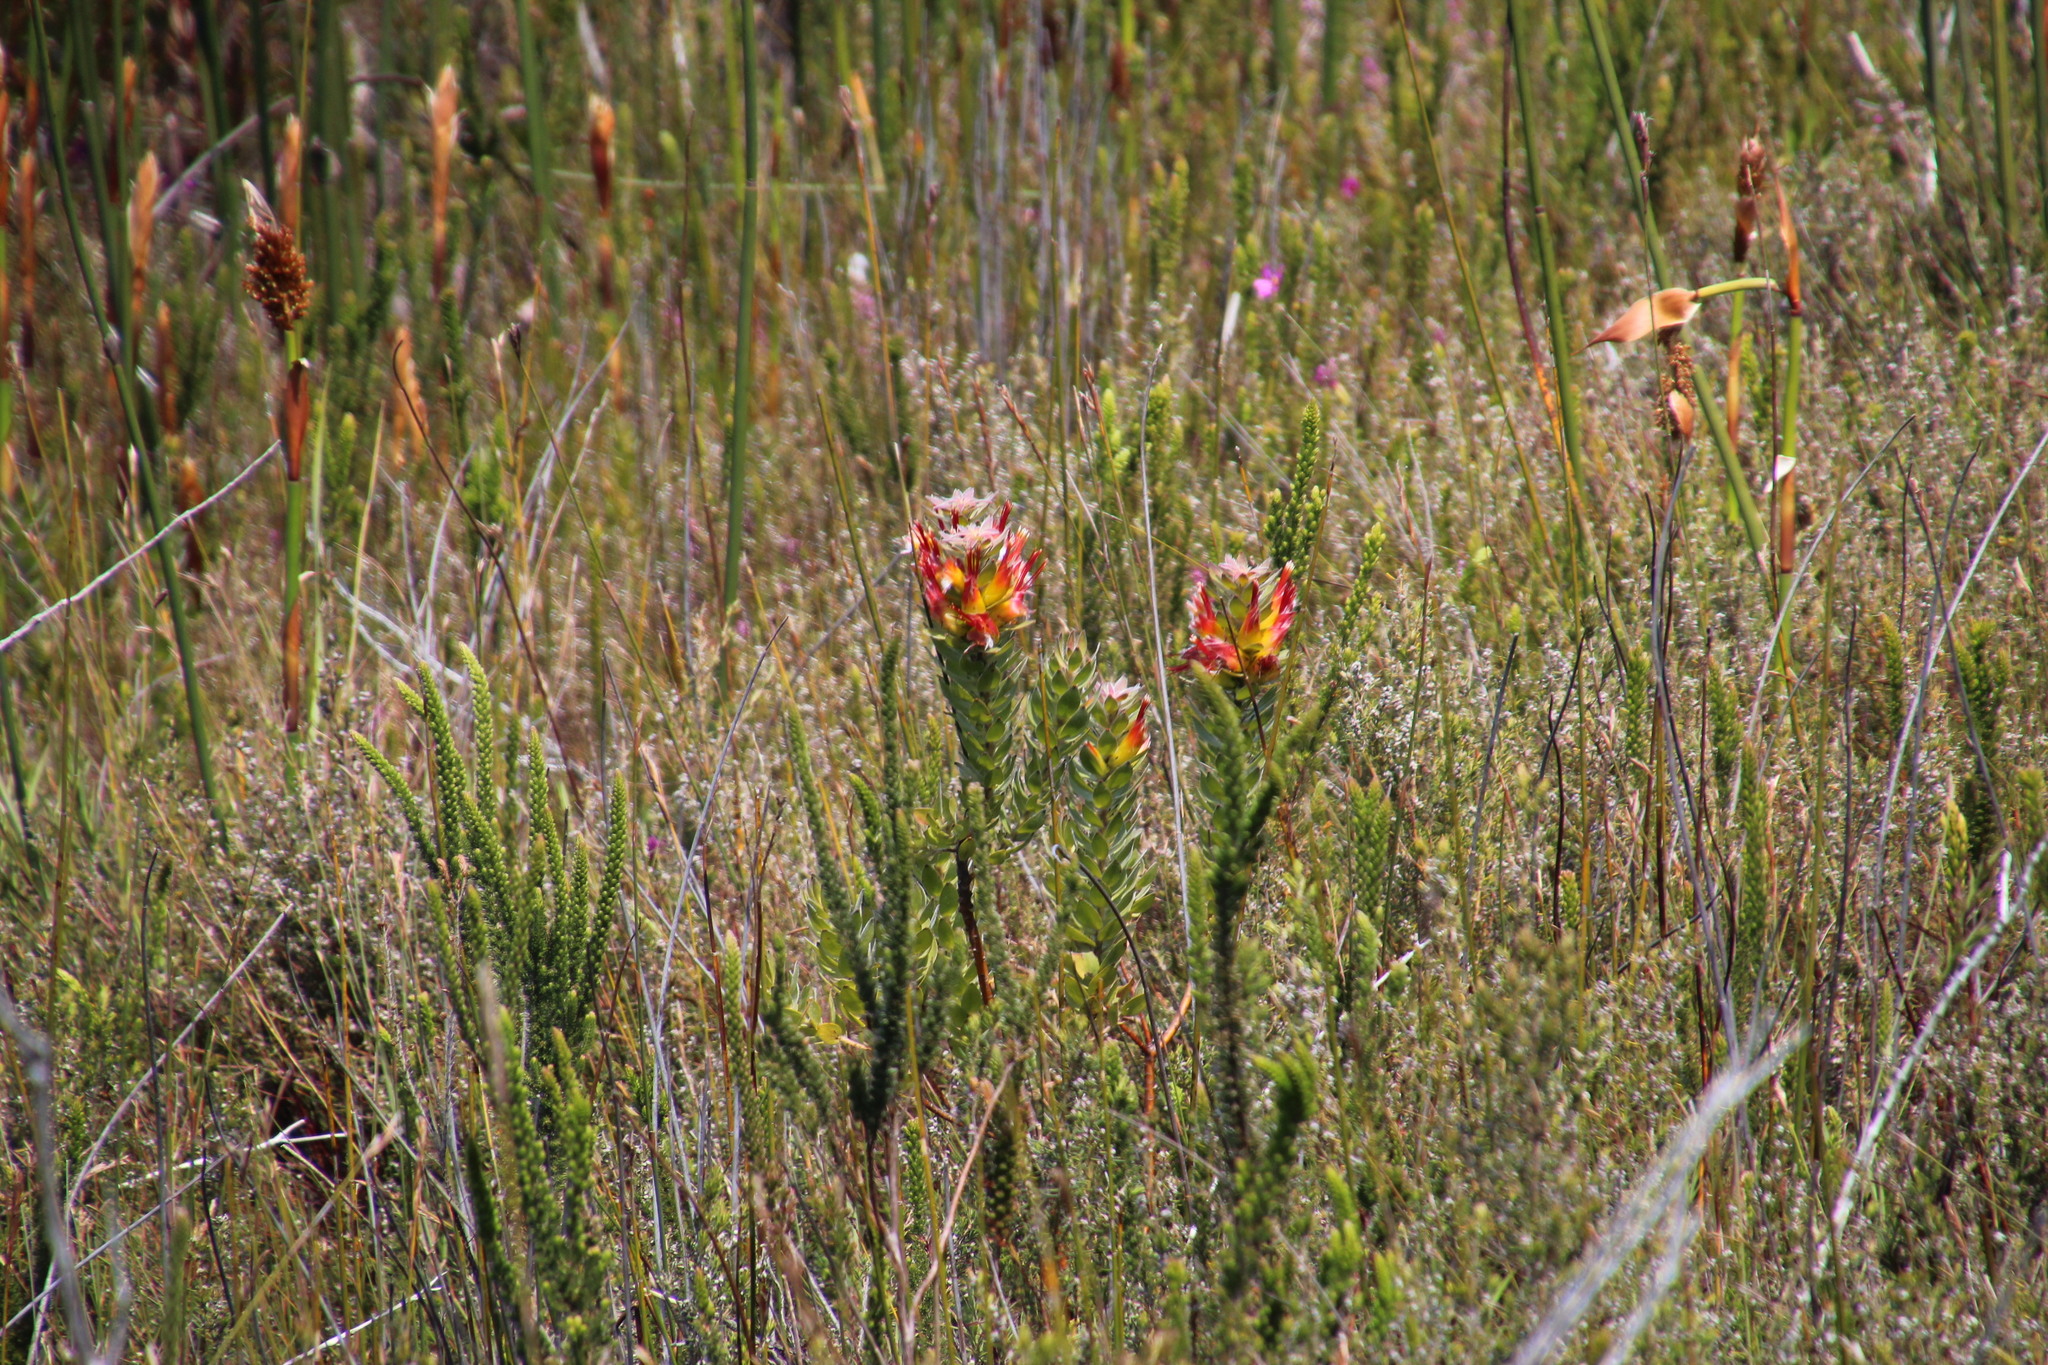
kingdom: Plantae
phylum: Tracheophyta
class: Magnoliopsida
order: Proteales
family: Proteaceae
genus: Mimetes
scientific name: Mimetes hirtus
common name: Marsh pagoda
